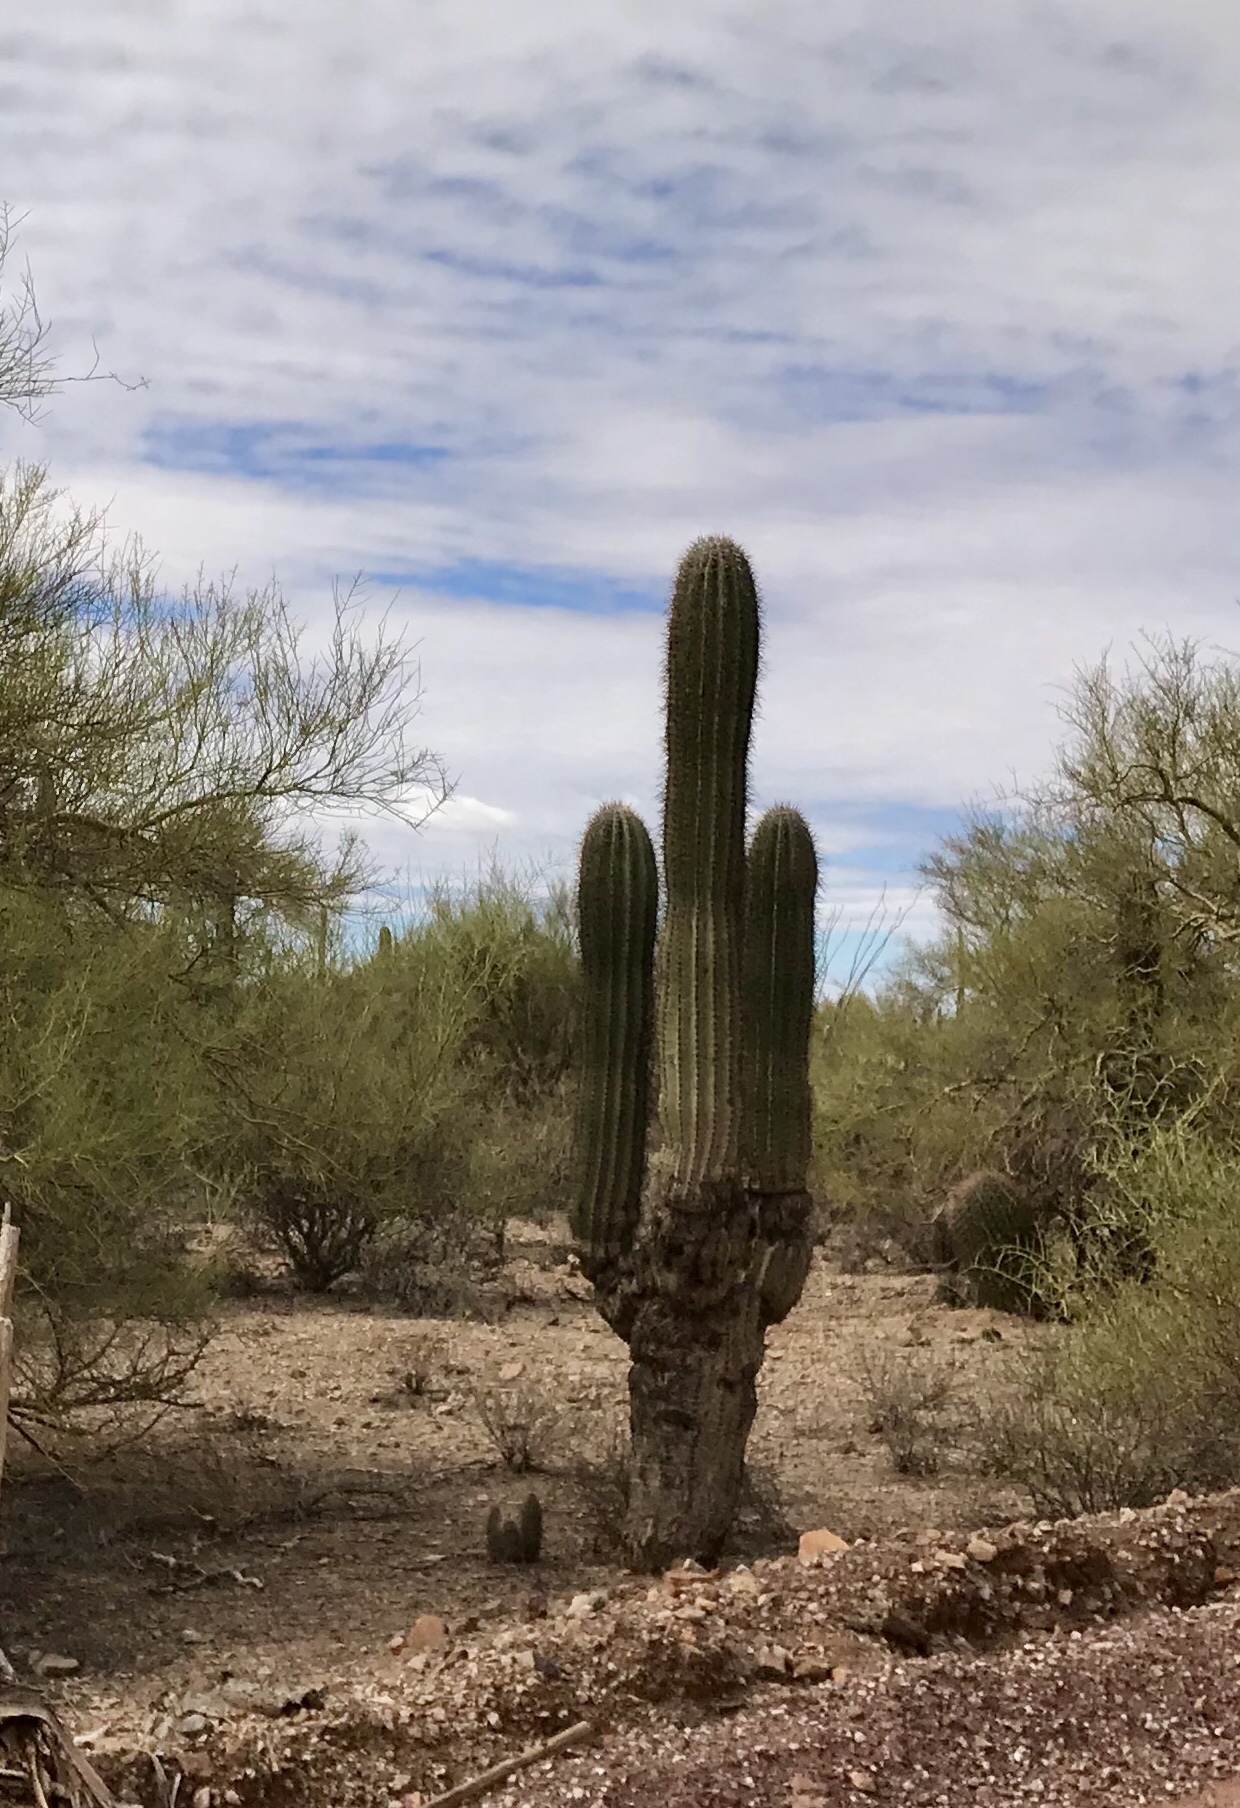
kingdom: Plantae
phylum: Tracheophyta
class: Magnoliopsida
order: Caryophyllales
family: Cactaceae
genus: Carnegiea
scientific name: Carnegiea gigantea
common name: Saguaro
